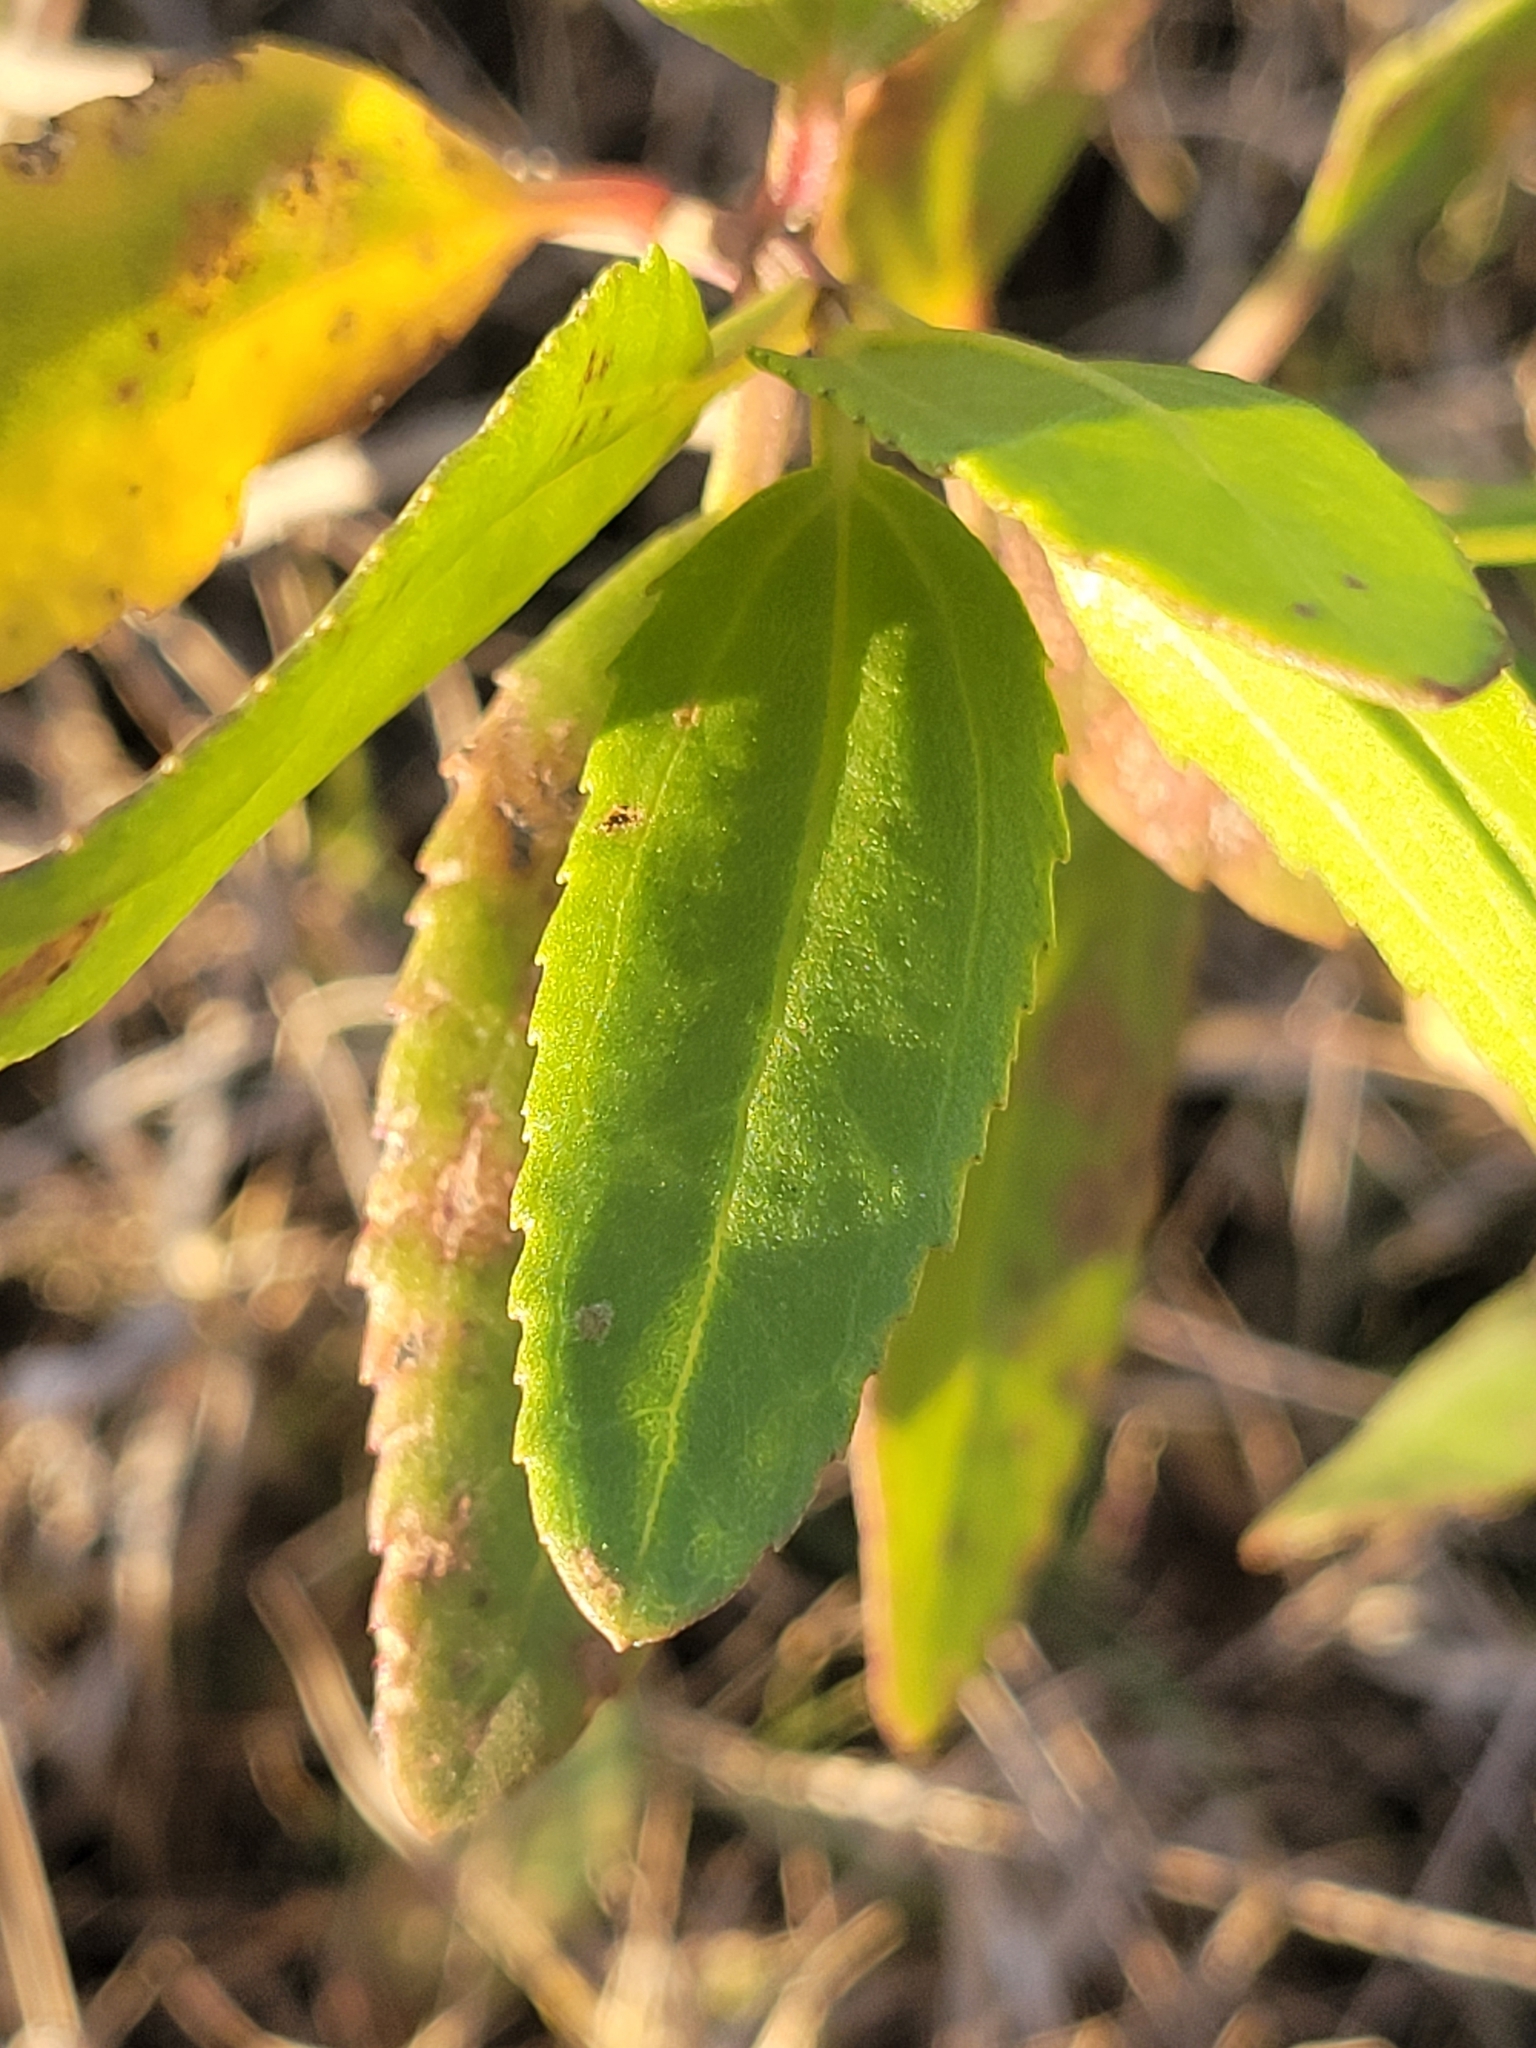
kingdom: Plantae
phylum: Tracheophyta
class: Magnoliopsida
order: Asterales
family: Asteraceae
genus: Iva
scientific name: Iva frutescens
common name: Big-leaved marsh-elder
